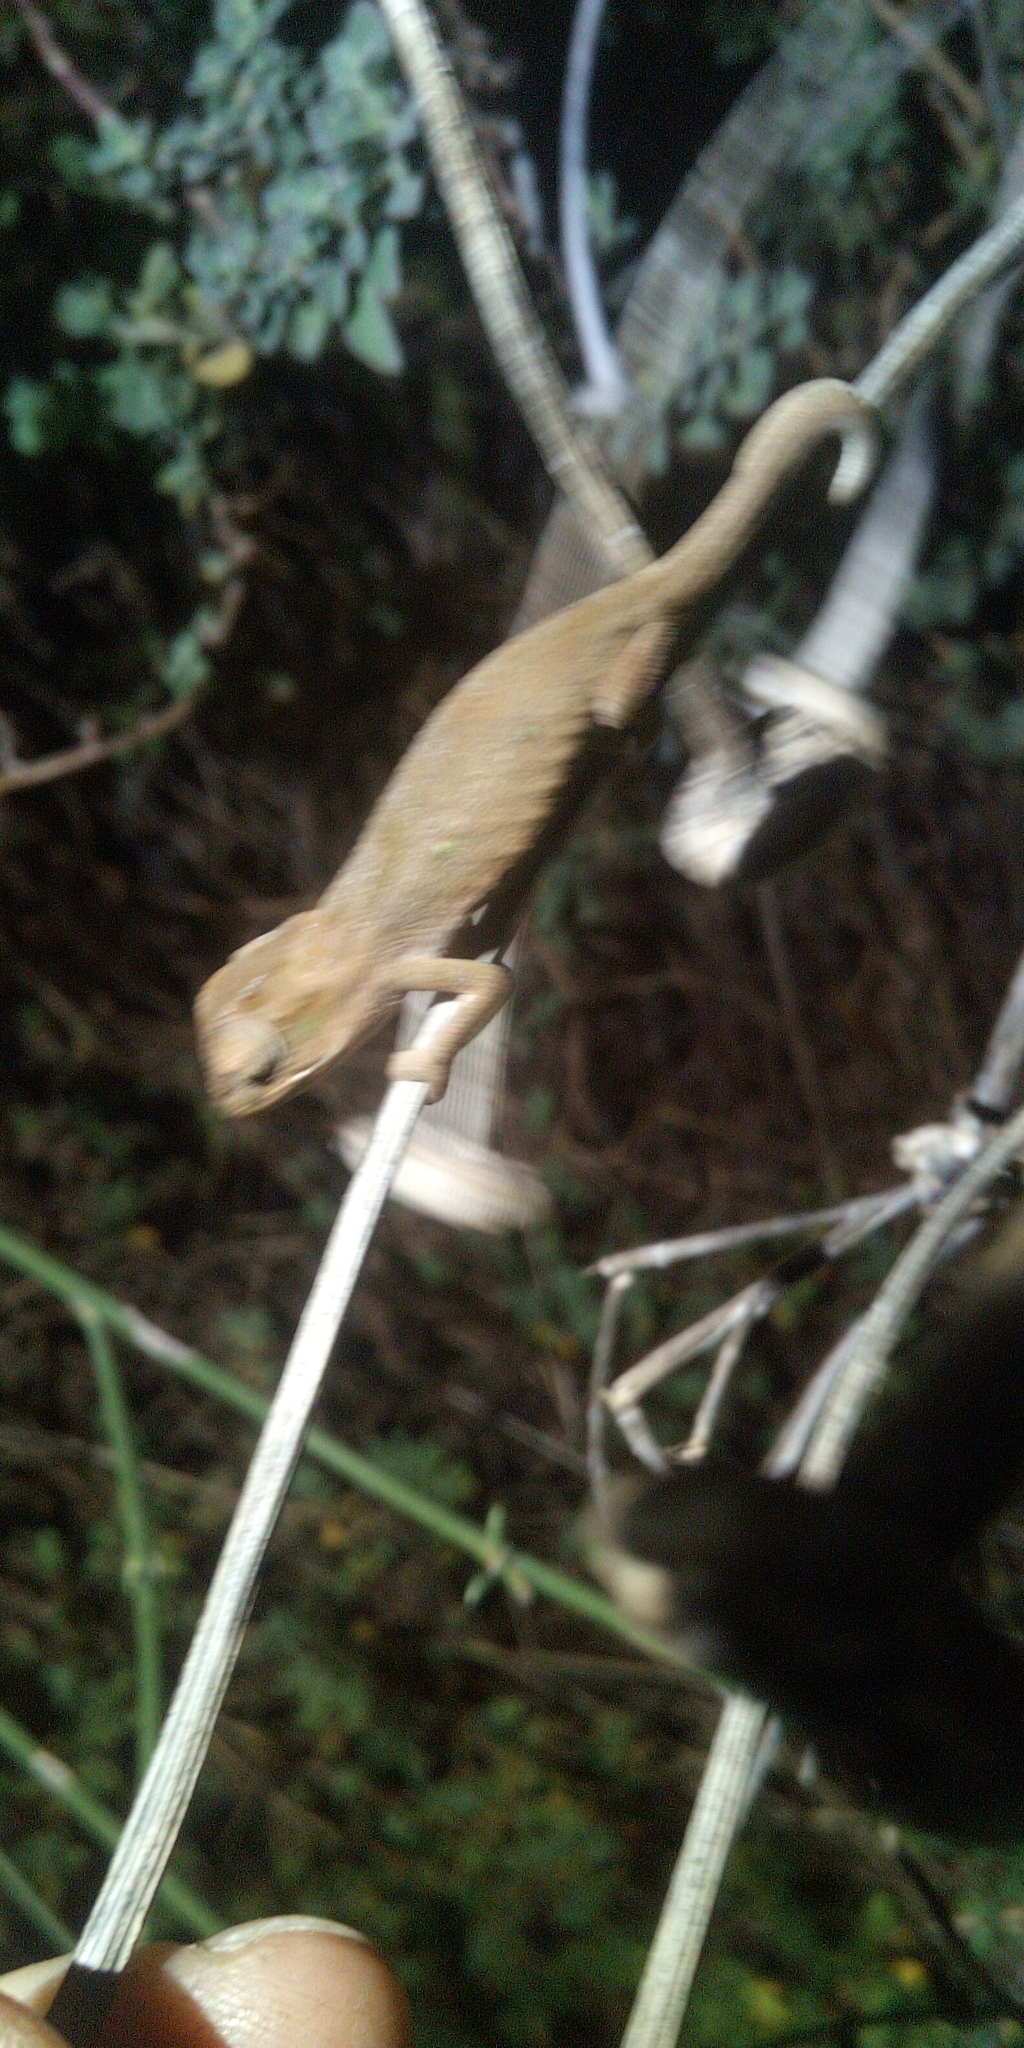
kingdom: Animalia
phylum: Chordata
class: Squamata
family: Chamaeleonidae
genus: Bradypodion
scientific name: Bradypodion pumilum
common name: Cape dwarf chameleon
